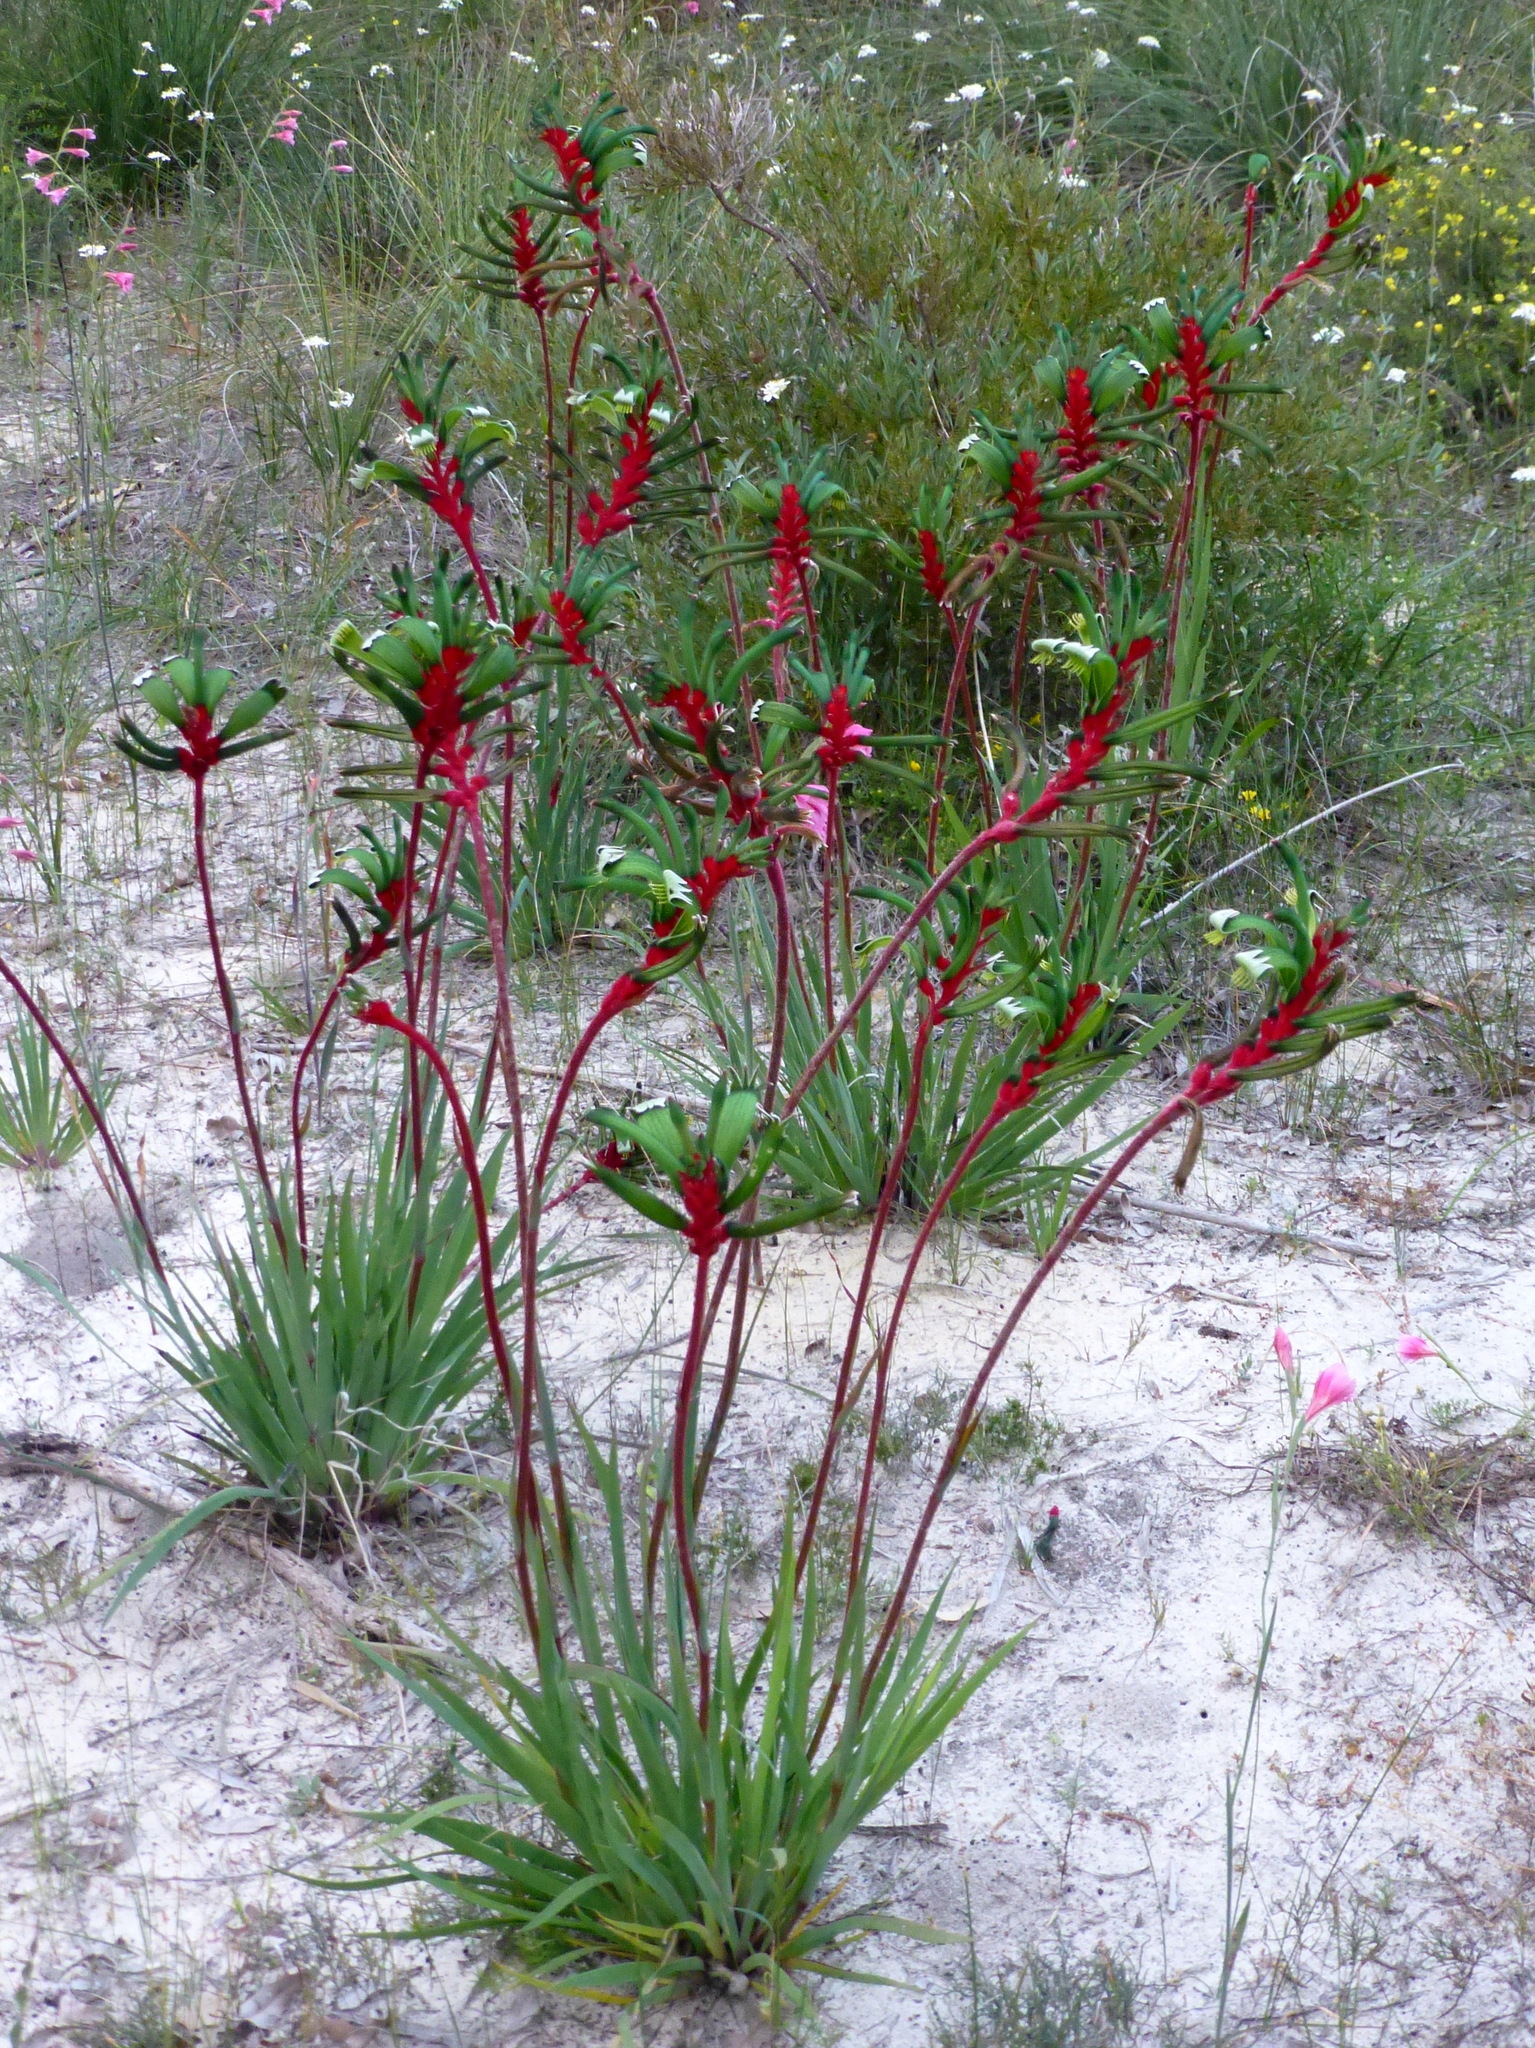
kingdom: Plantae
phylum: Tracheophyta
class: Liliopsida
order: Commelinales
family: Haemodoraceae
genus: Anigozanthos
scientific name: Anigozanthos manglesii
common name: Mangles's kangaroo-paw
